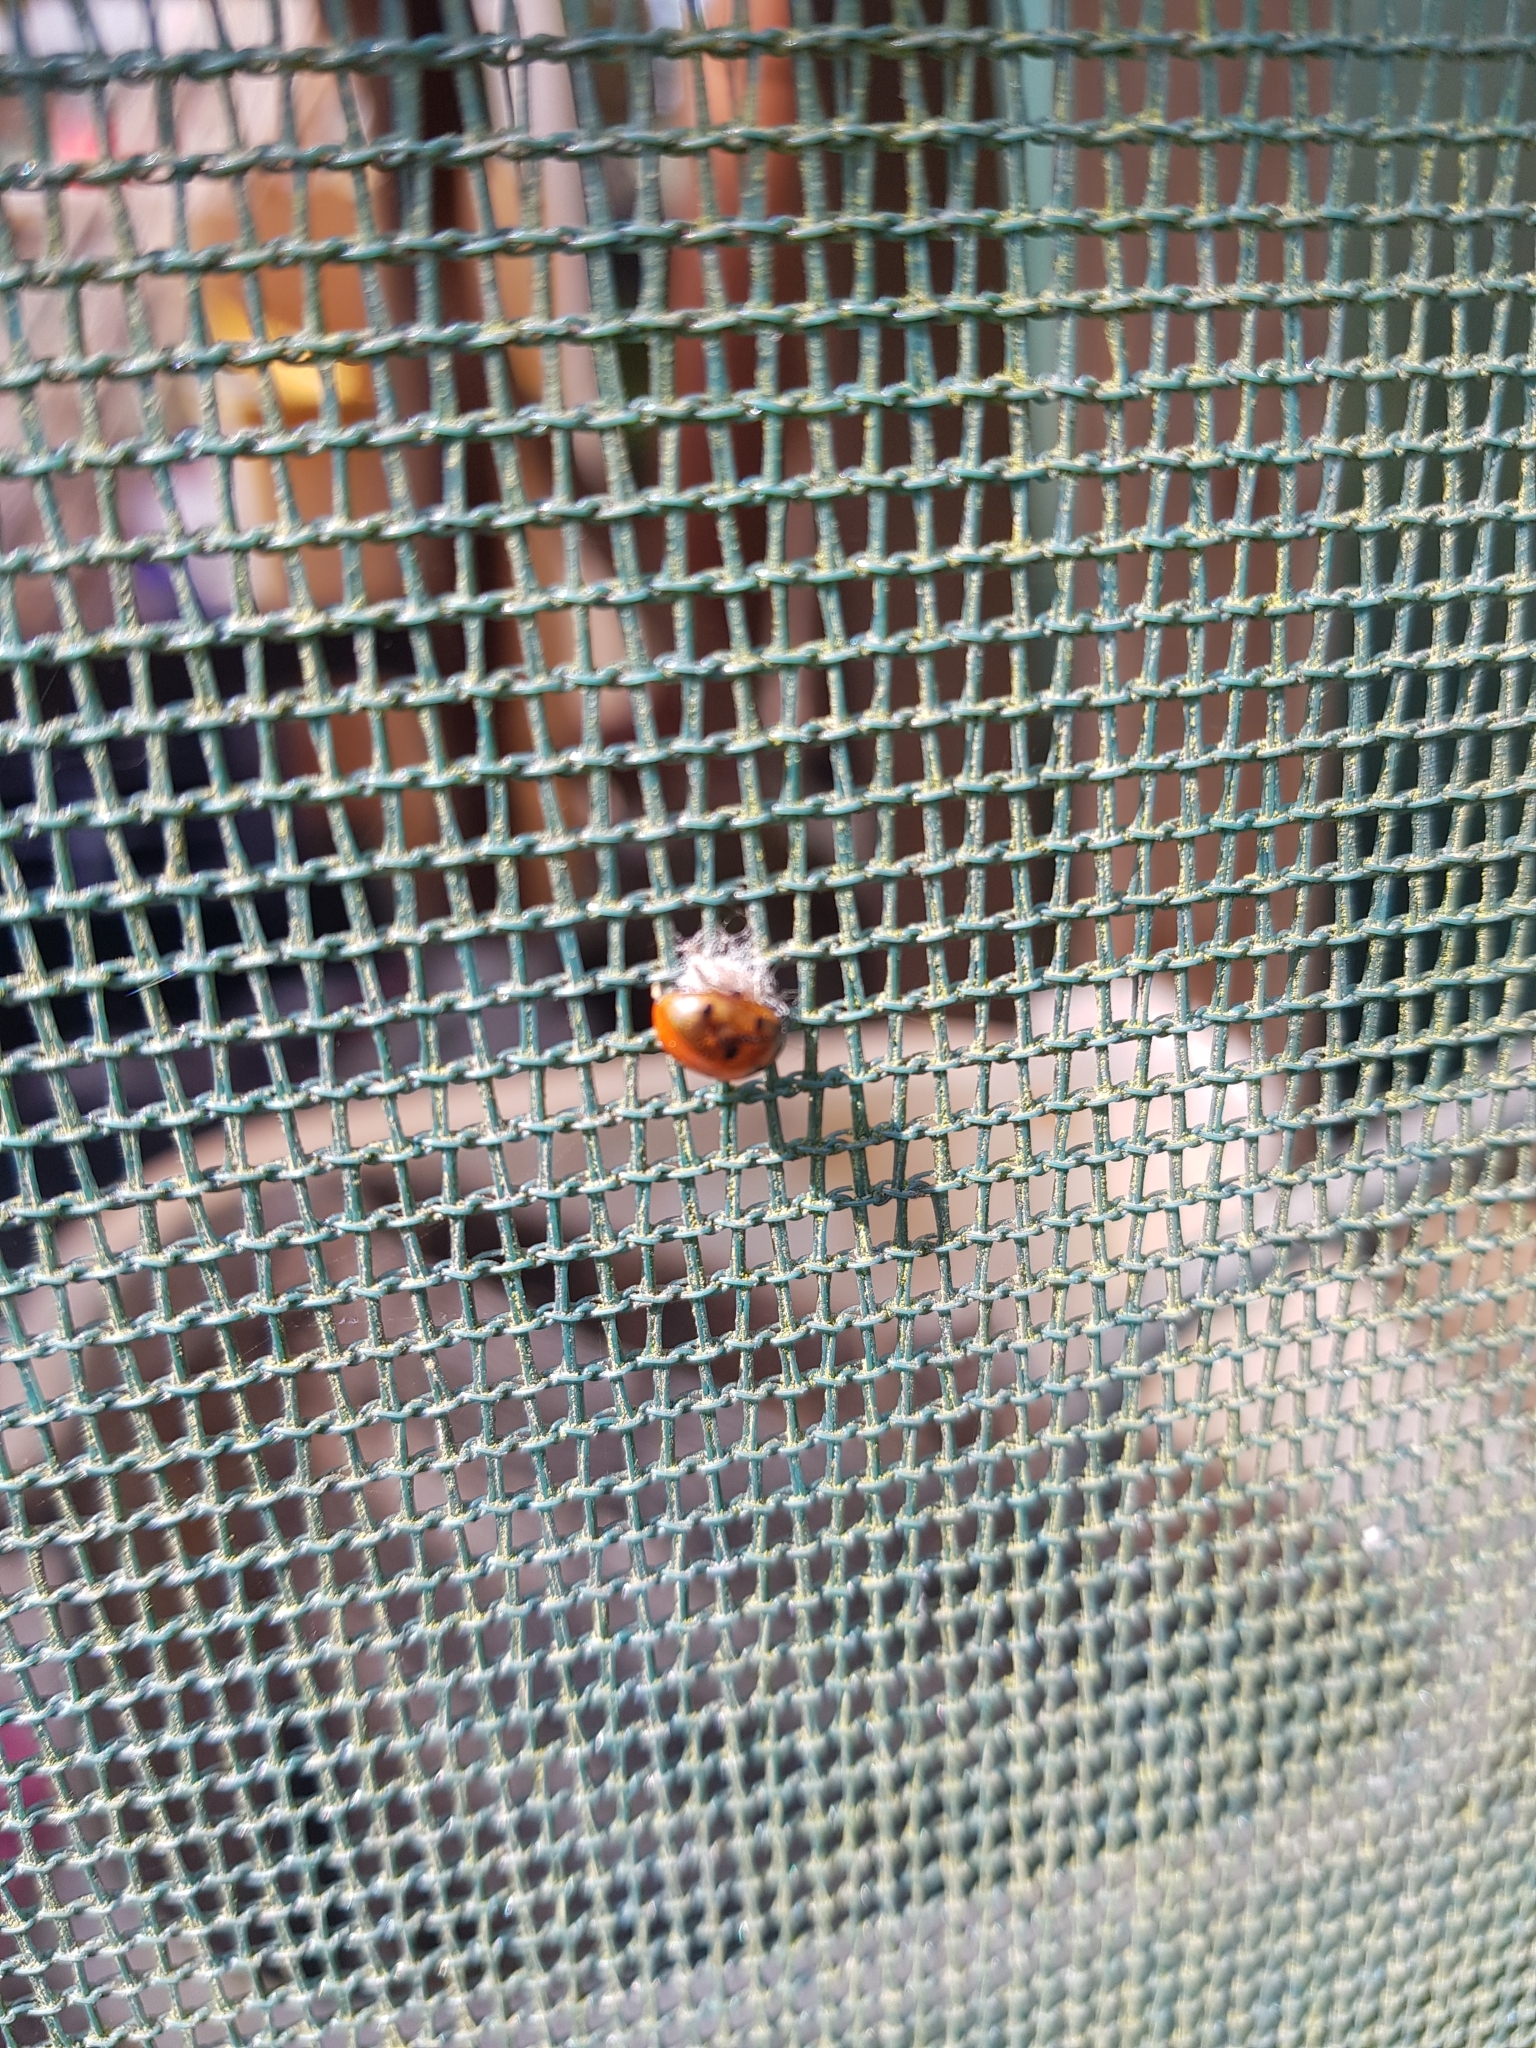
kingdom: Animalia
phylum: Arthropoda
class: Insecta
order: Hymenoptera
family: Braconidae
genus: Dinocampus
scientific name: Dinocampus coccinellae
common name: Braconid wasp
